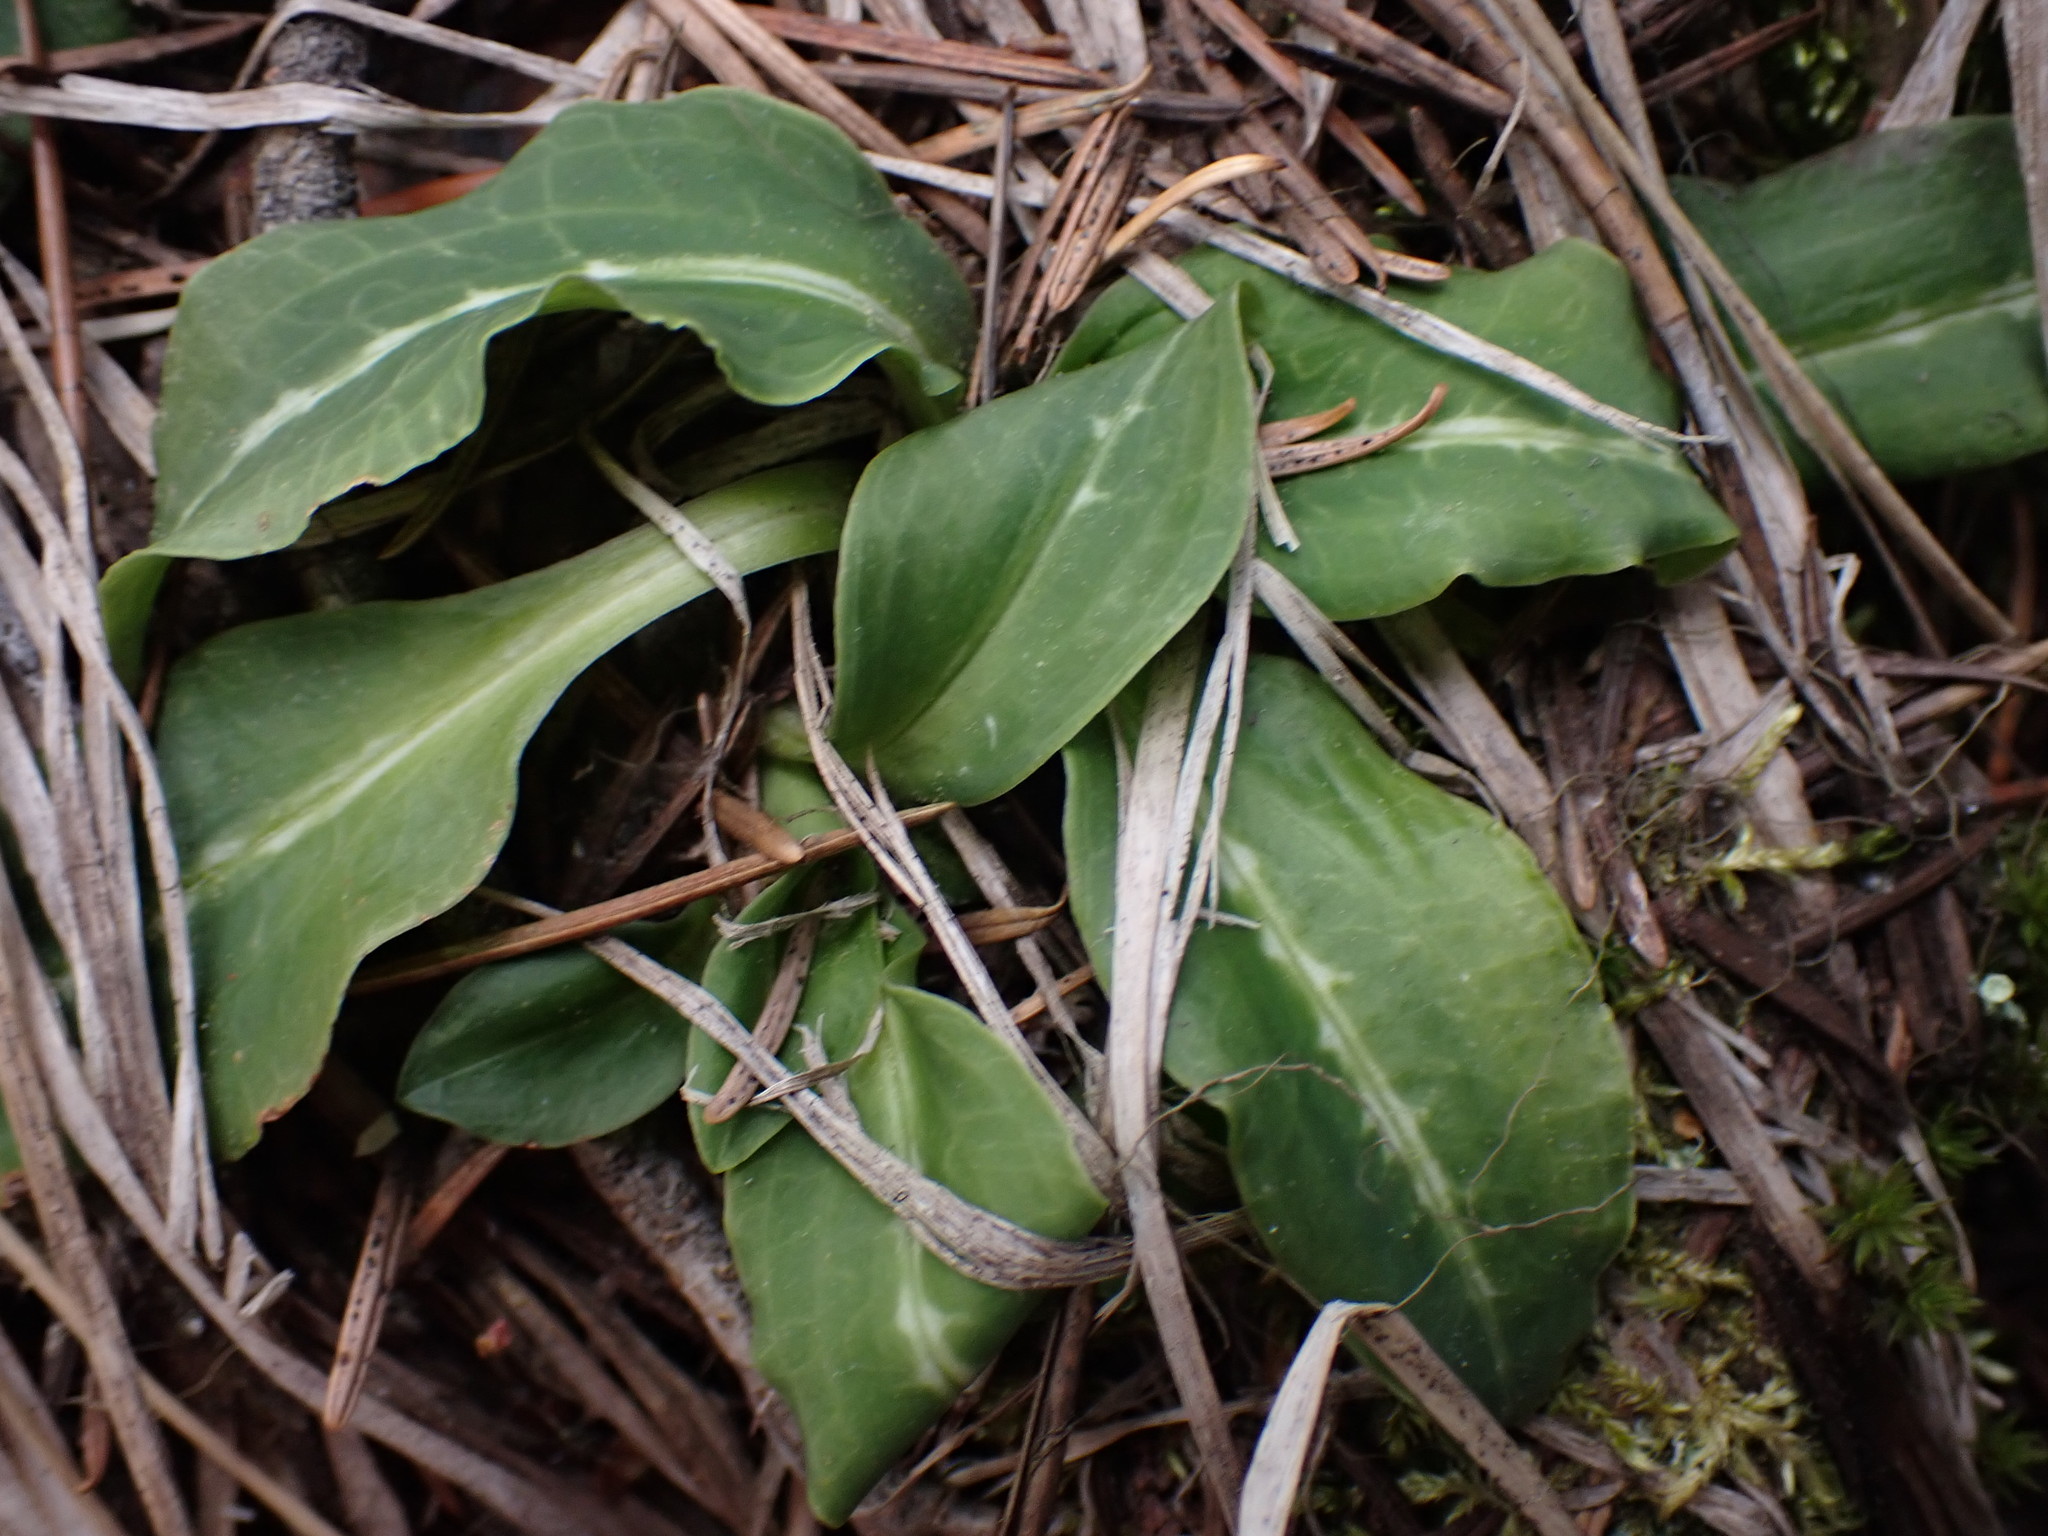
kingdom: Plantae
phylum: Tracheophyta
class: Liliopsida
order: Asparagales
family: Orchidaceae
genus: Goodyera
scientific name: Goodyera oblongifolia
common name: Giant rattlesnake-plantain
